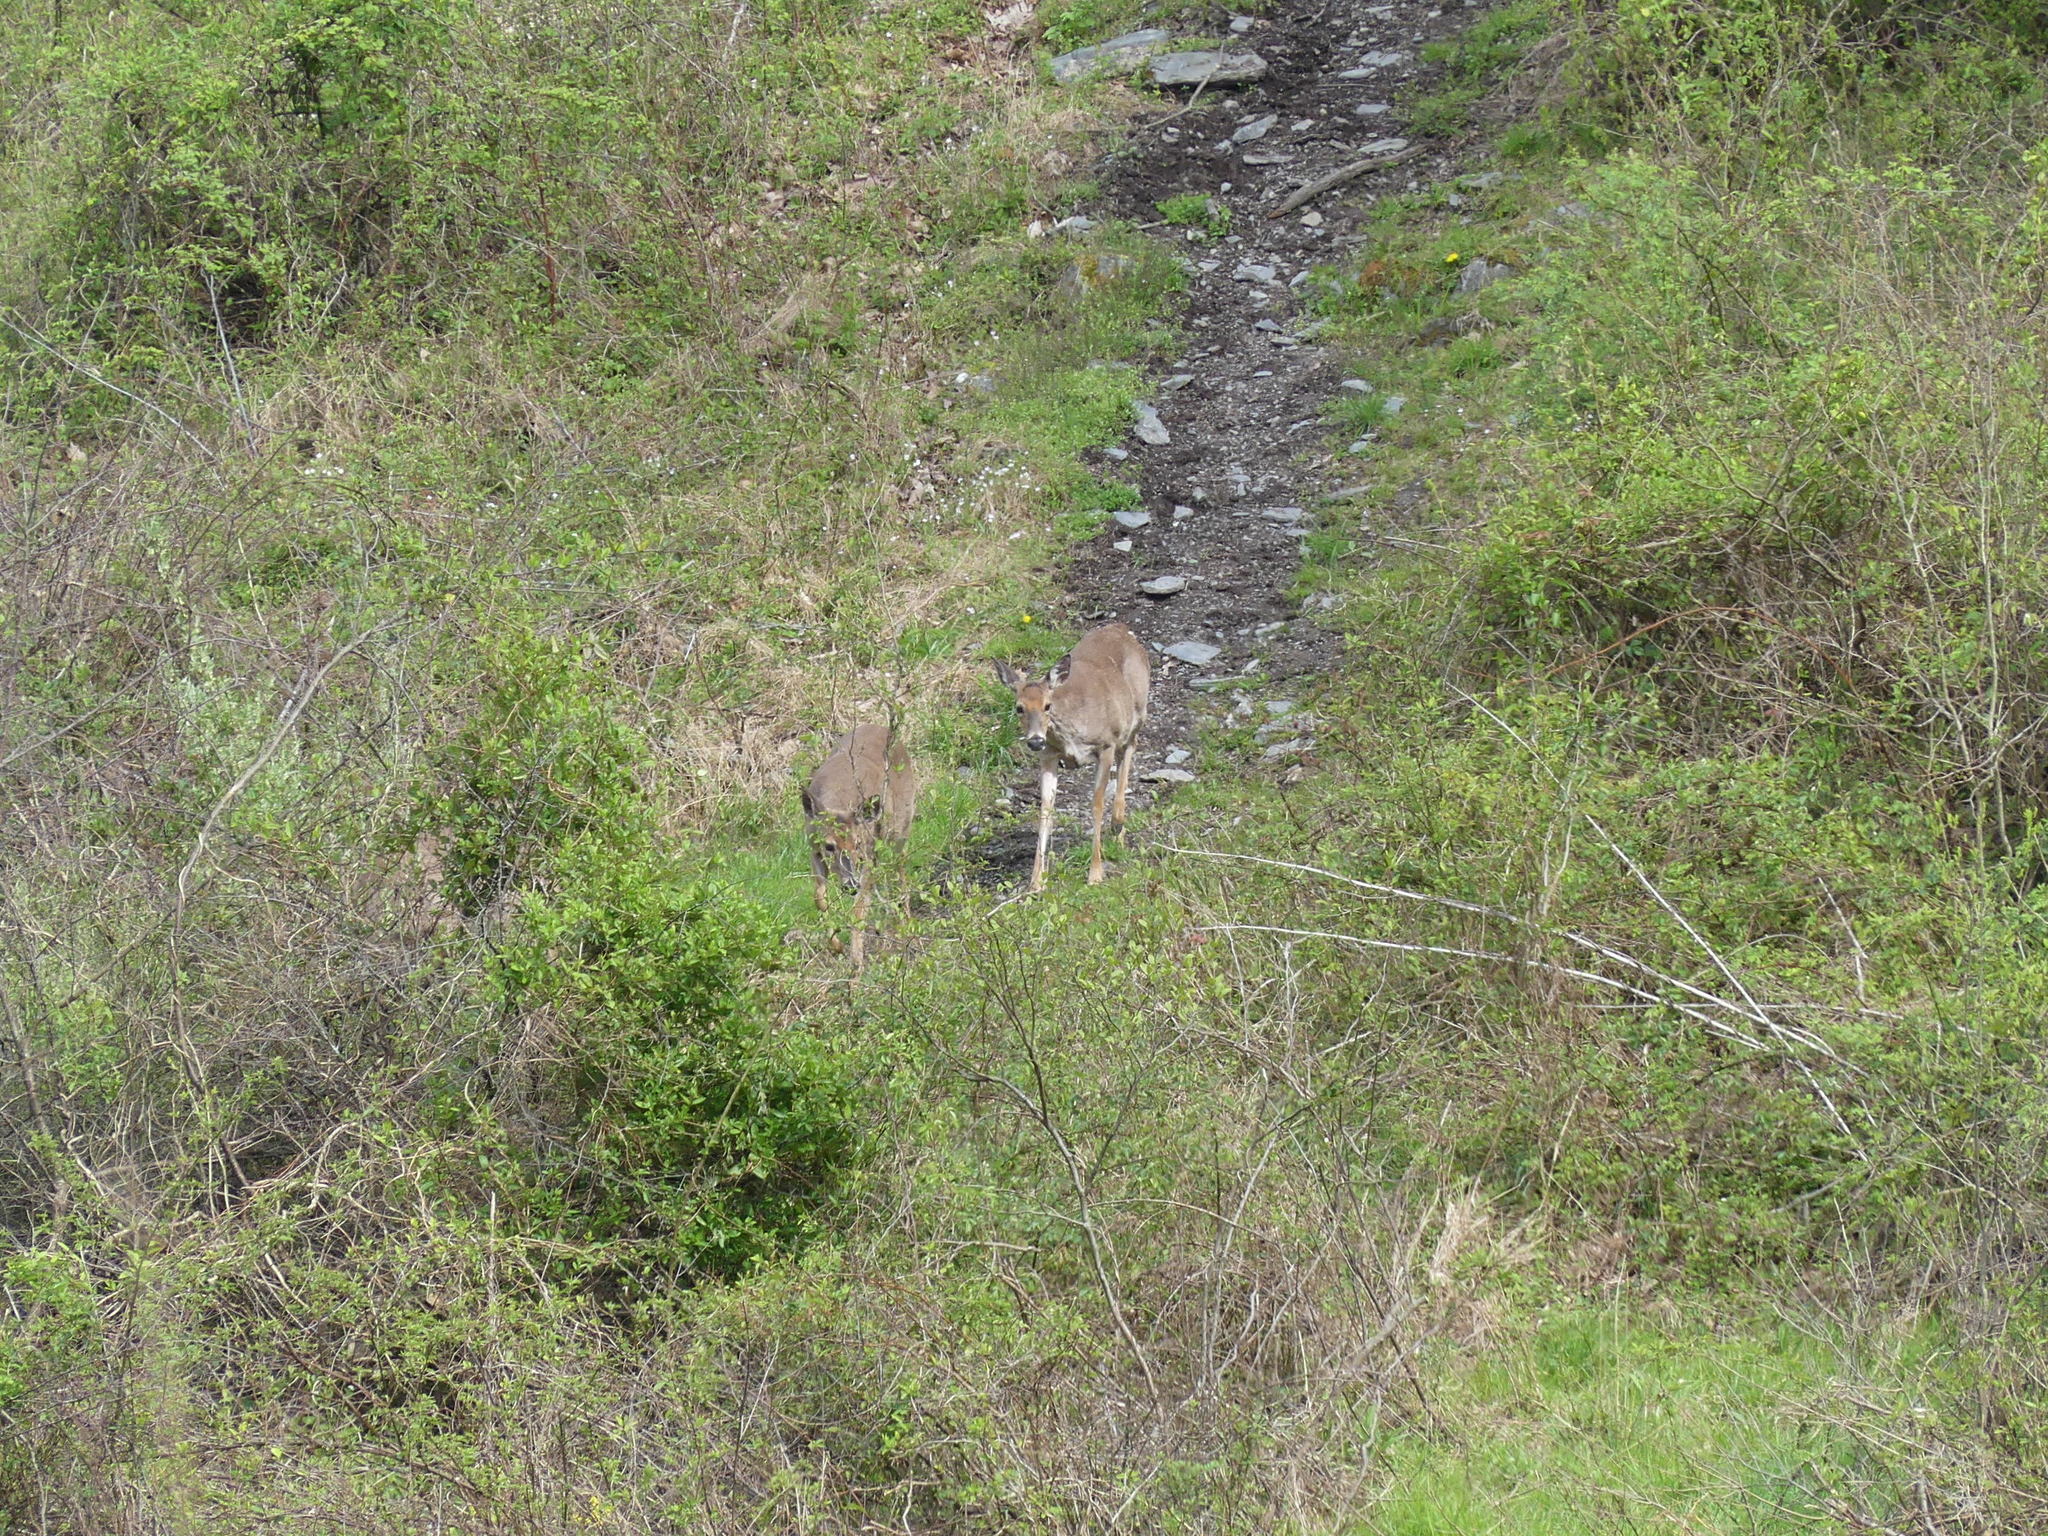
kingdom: Animalia
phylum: Chordata
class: Mammalia
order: Artiodactyla
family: Cervidae
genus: Odocoileus
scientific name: Odocoileus virginianus
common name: White-tailed deer
